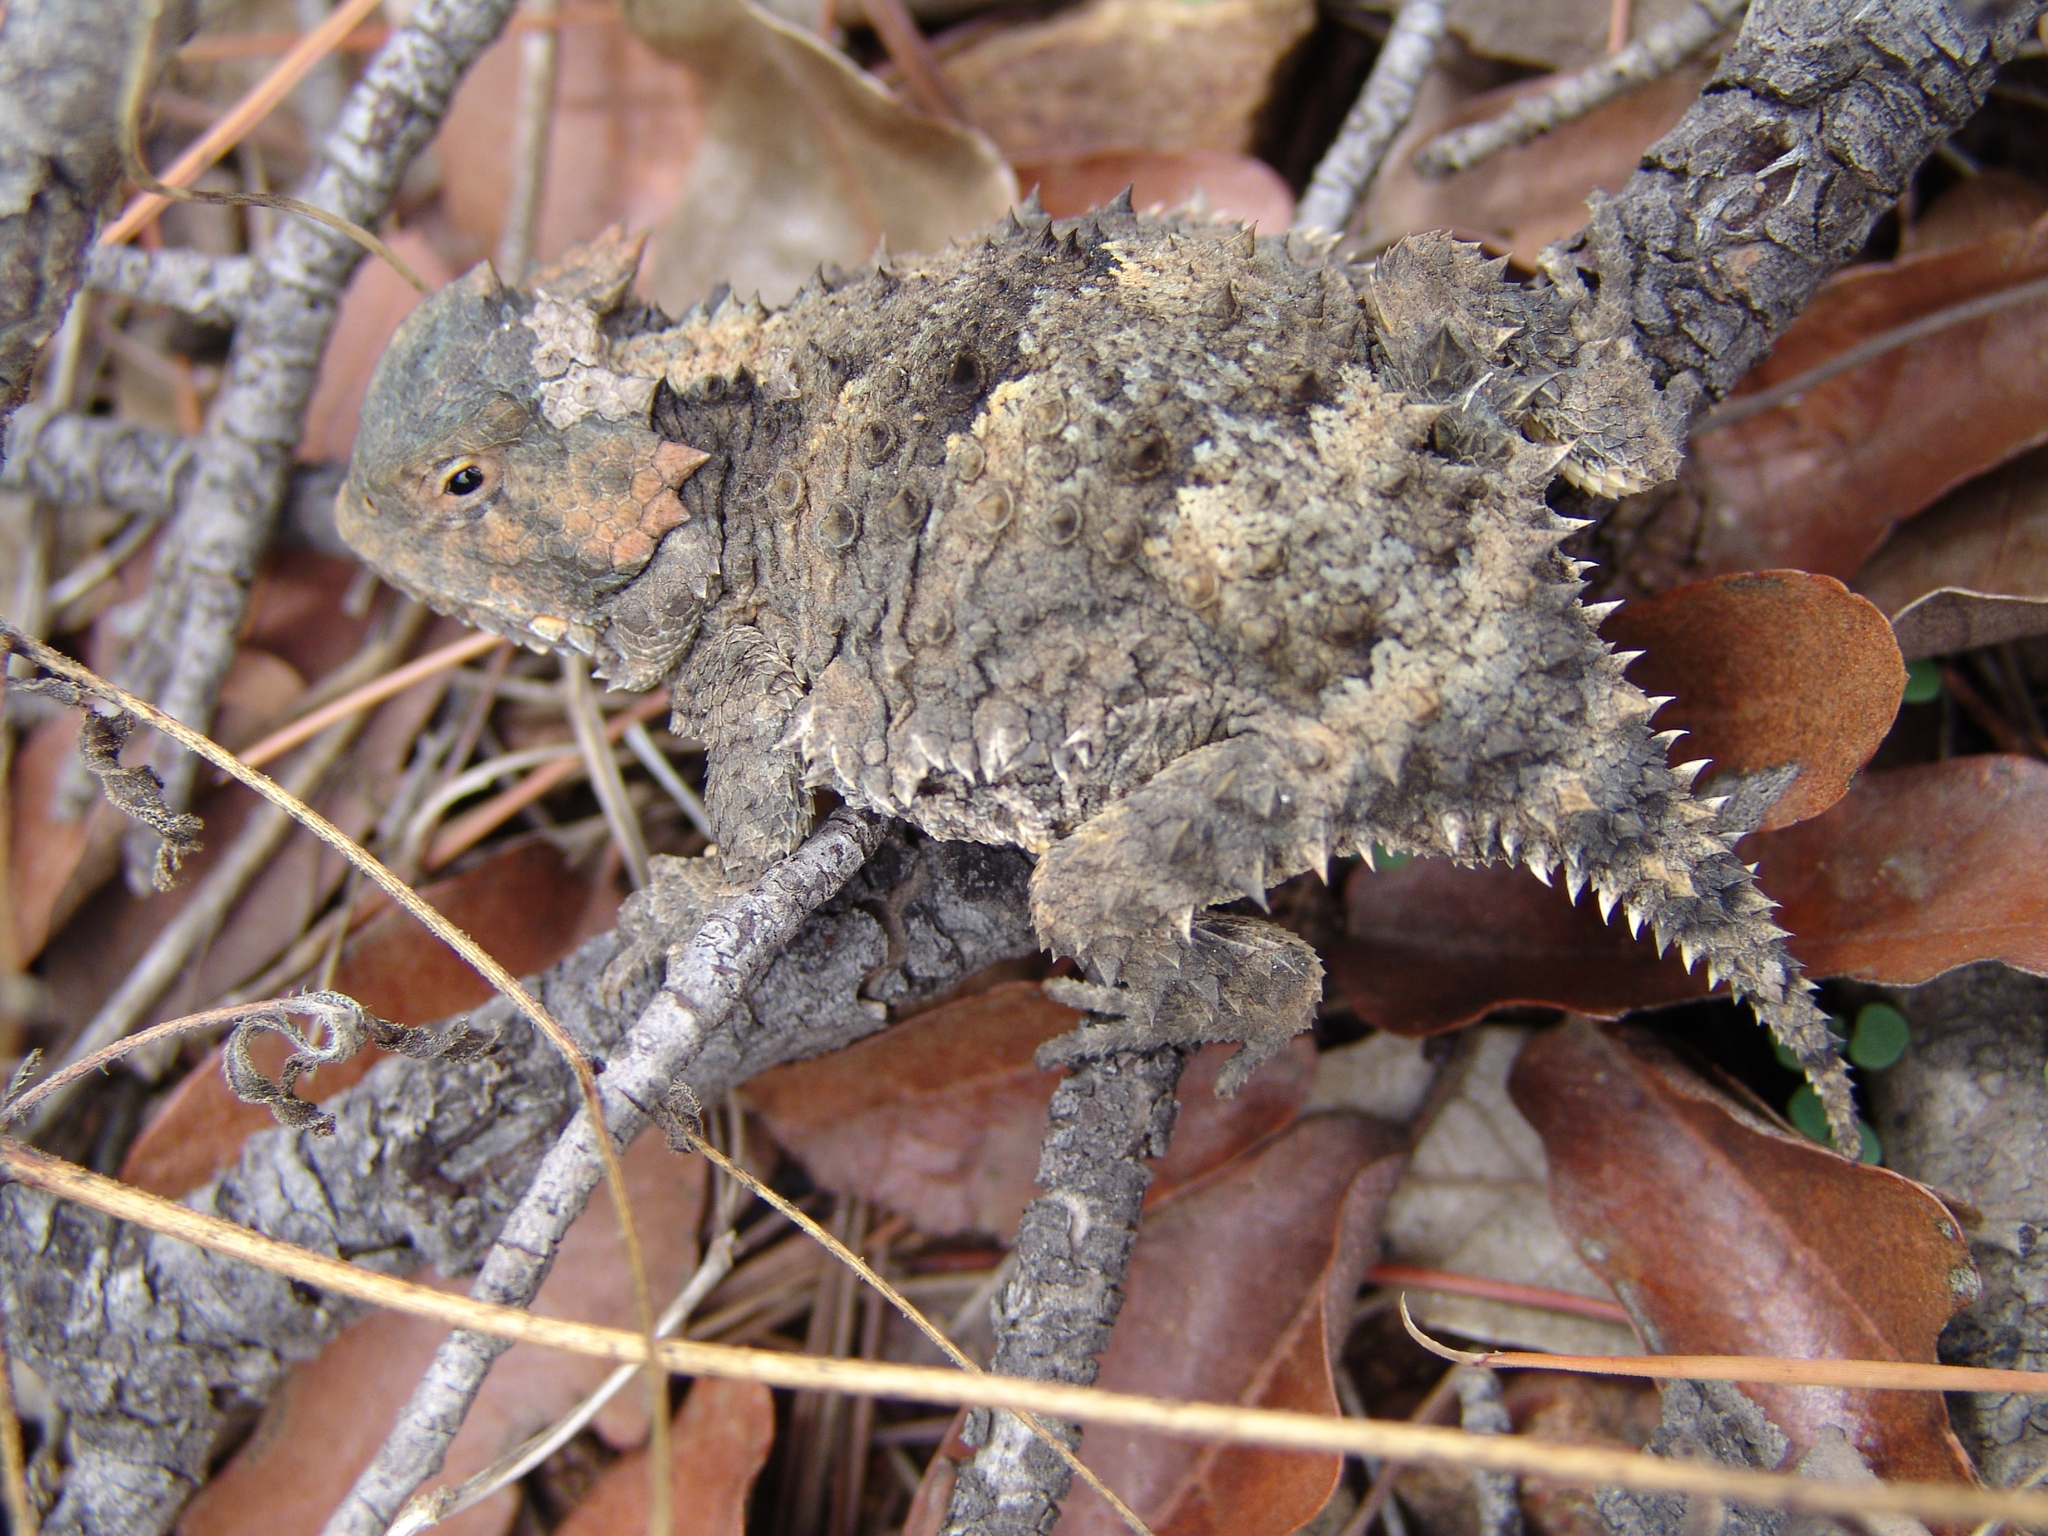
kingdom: Animalia
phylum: Chordata
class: Squamata
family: Phrynosomatidae
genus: Phrynosoma
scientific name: Phrynosoma hernandesi
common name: Greater short-horned lizard
